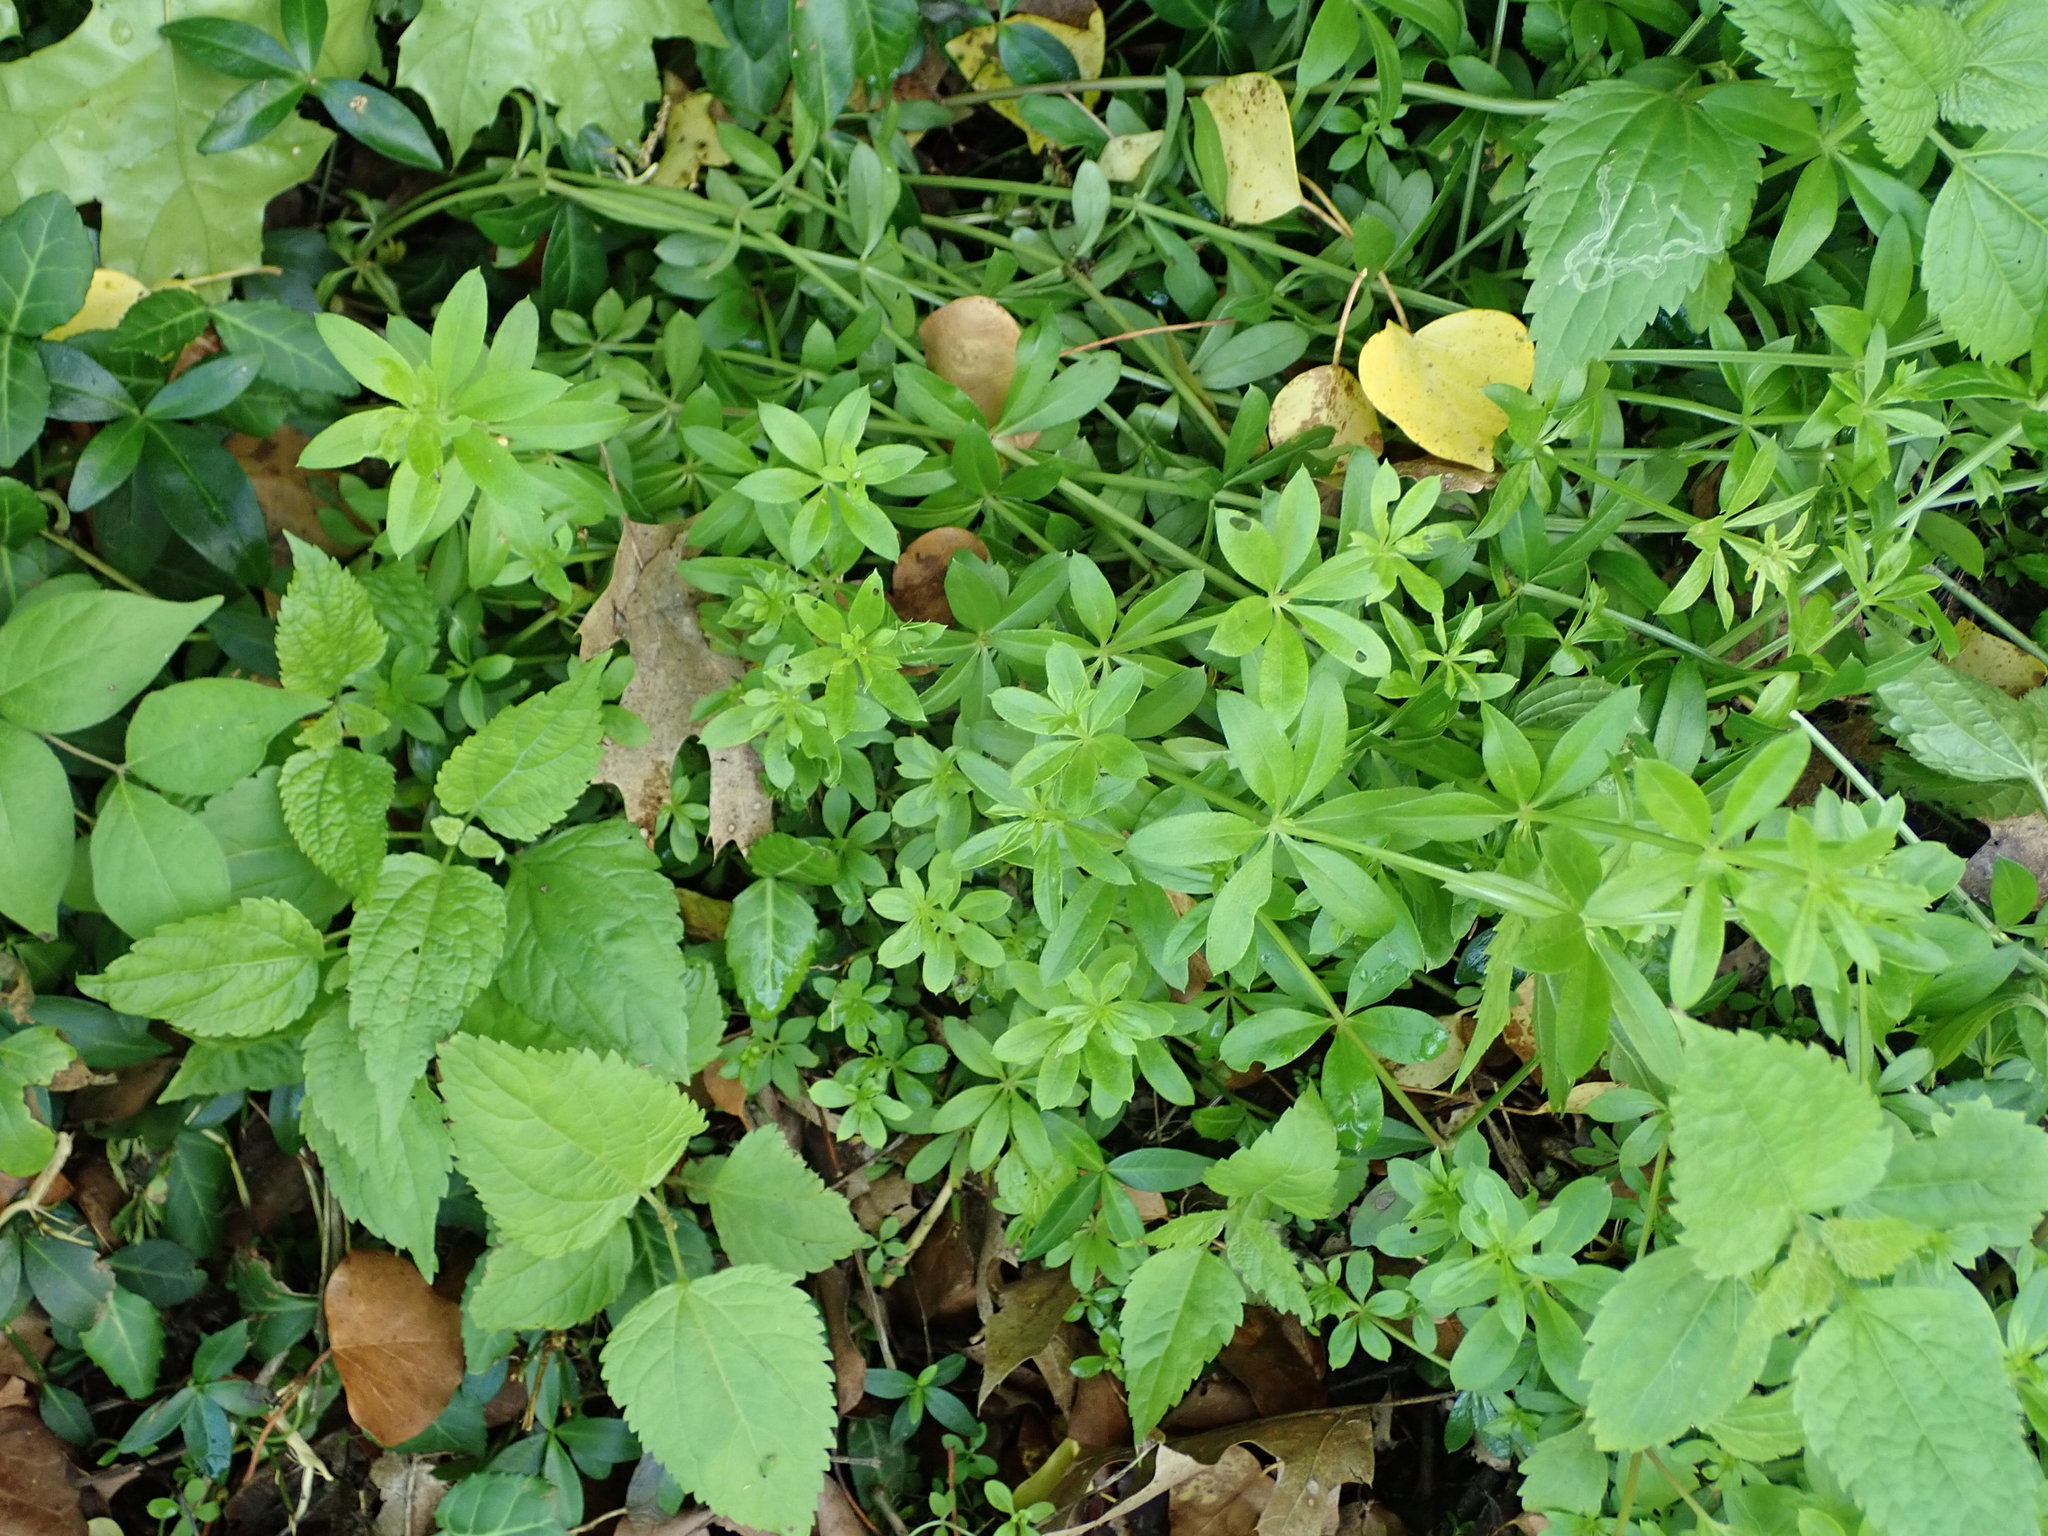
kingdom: Plantae
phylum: Tracheophyta
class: Magnoliopsida
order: Gentianales
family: Rubiaceae
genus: Galium
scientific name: Galium triflorum
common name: Fragrant bedstraw
